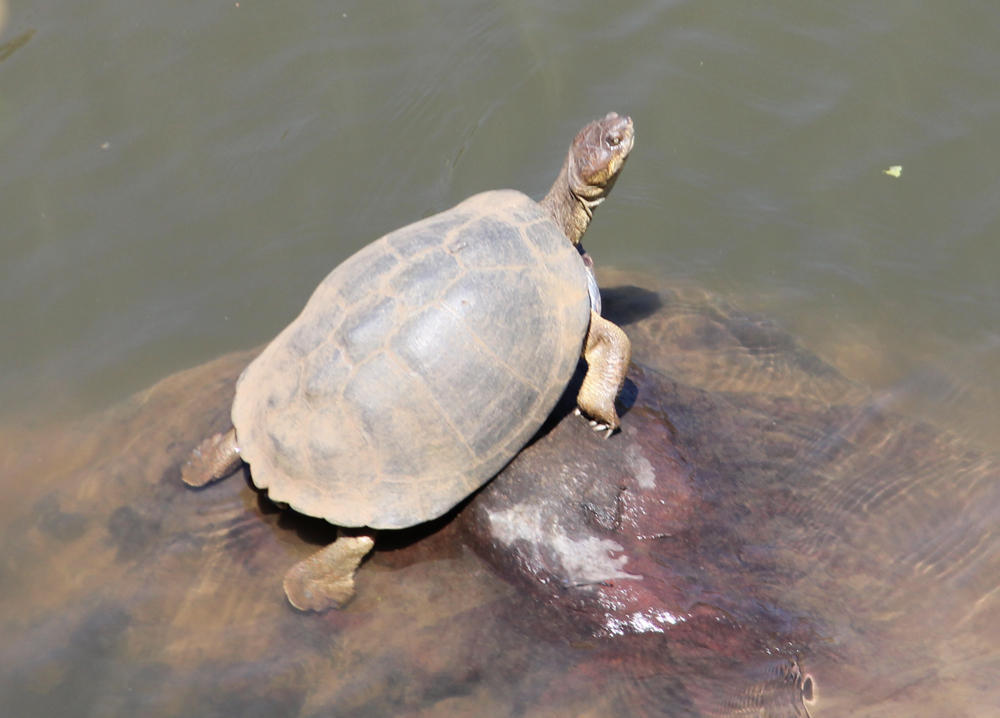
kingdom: Animalia
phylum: Chordata
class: Testudines
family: Pelomedusidae
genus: Pelusios
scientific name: Pelusios sinuatus
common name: Serrated hinged terrapin
